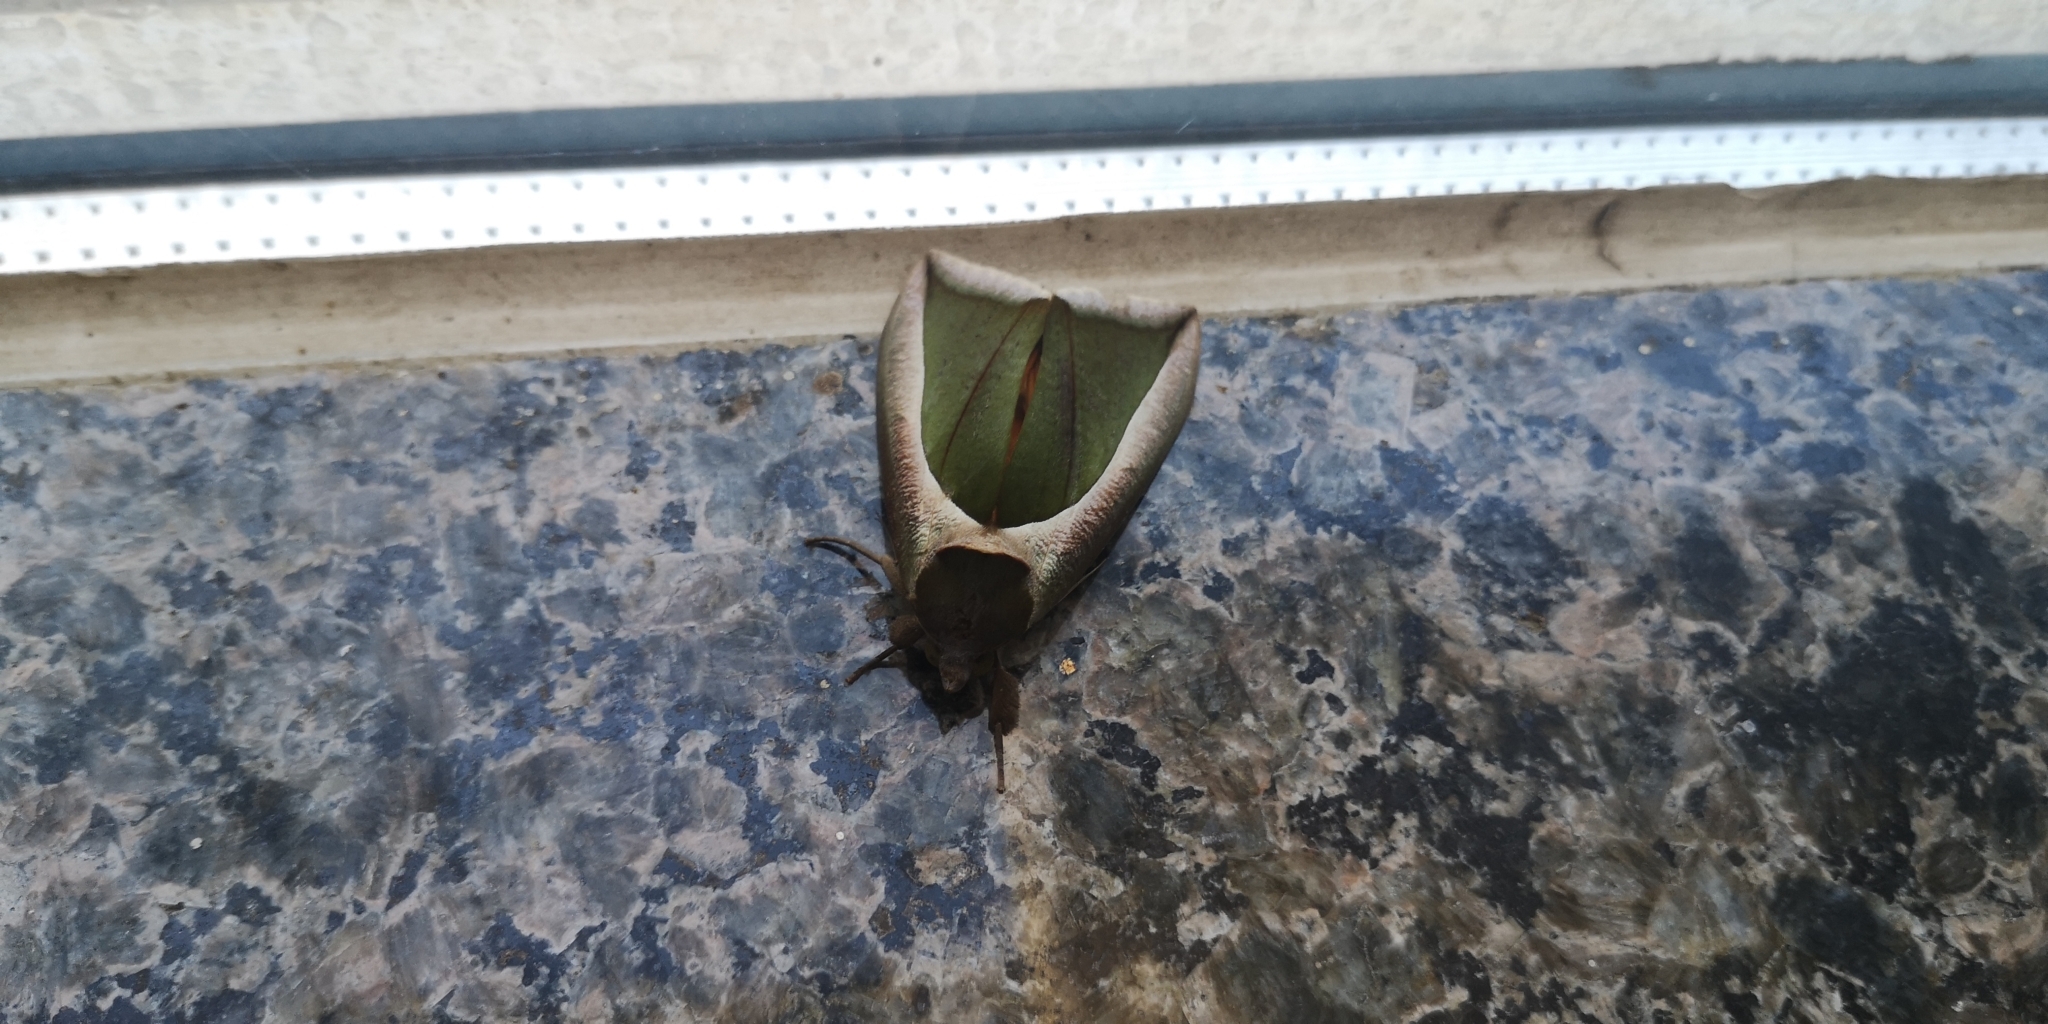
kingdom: Animalia
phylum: Arthropoda
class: Insecta
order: Lepidoptera
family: Erebidae
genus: Eudocima
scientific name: Eudocima salaminia
